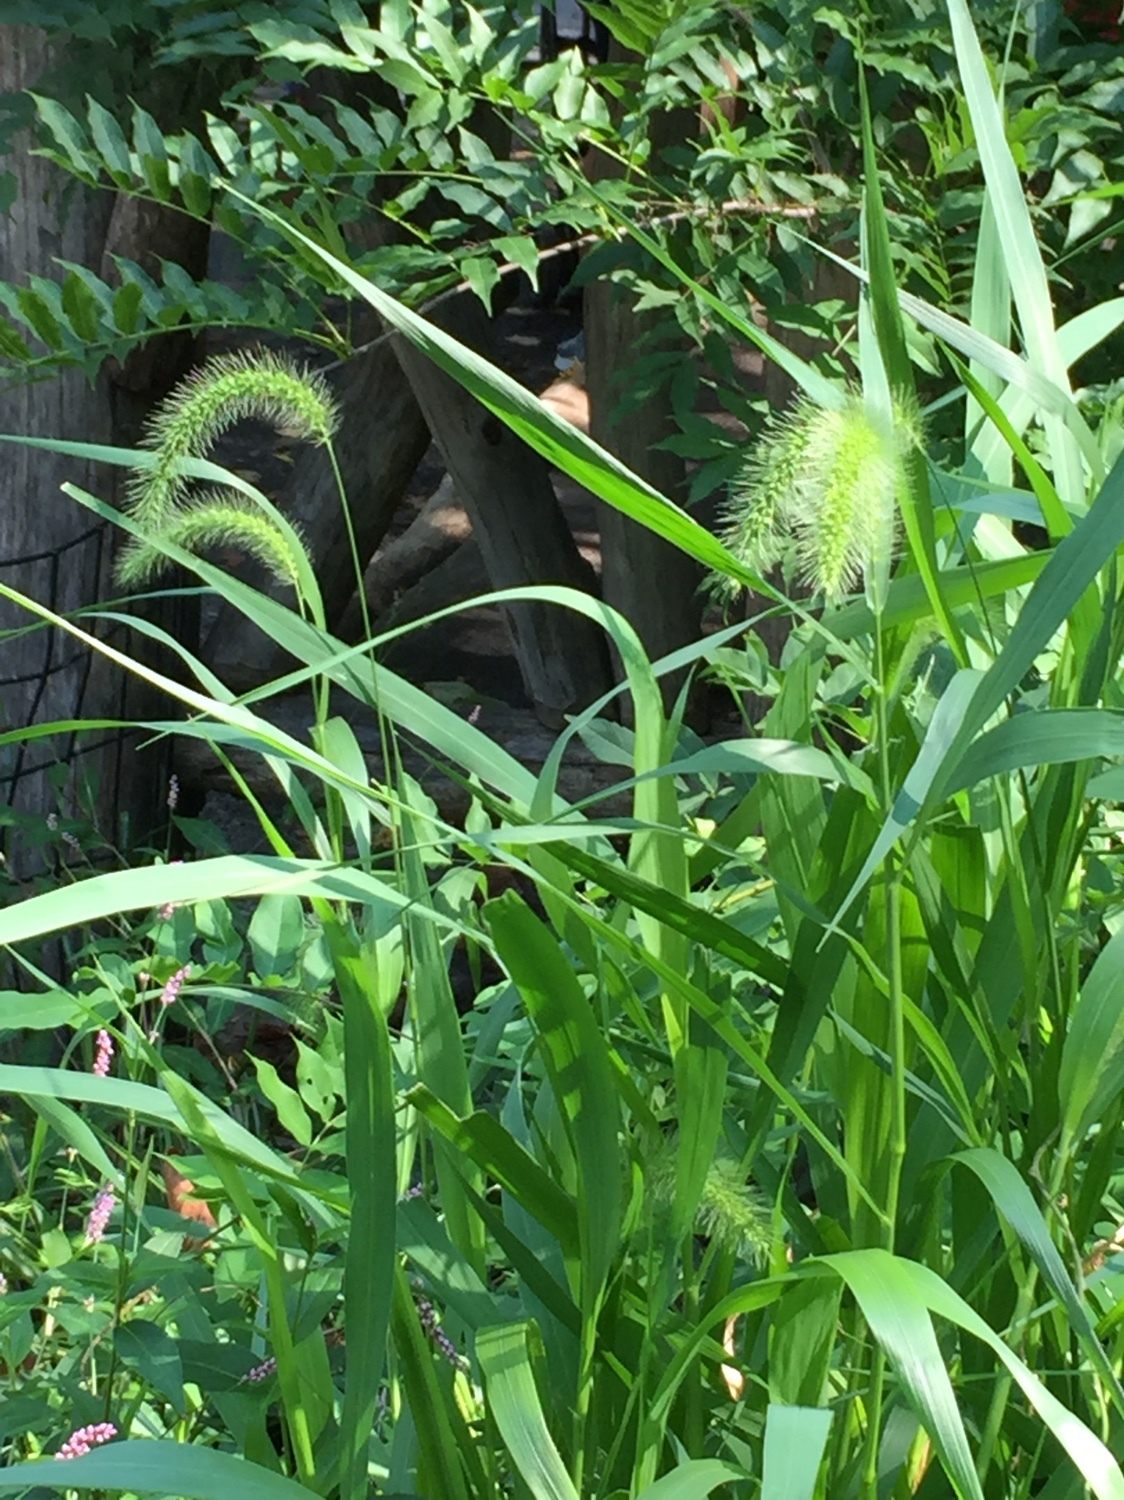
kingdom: Plantae
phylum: Tracheophyta
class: Liliopsida
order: Poales
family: Poaceae
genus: Setaria
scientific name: Setaria faberi
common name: Nodding bristle-grass
